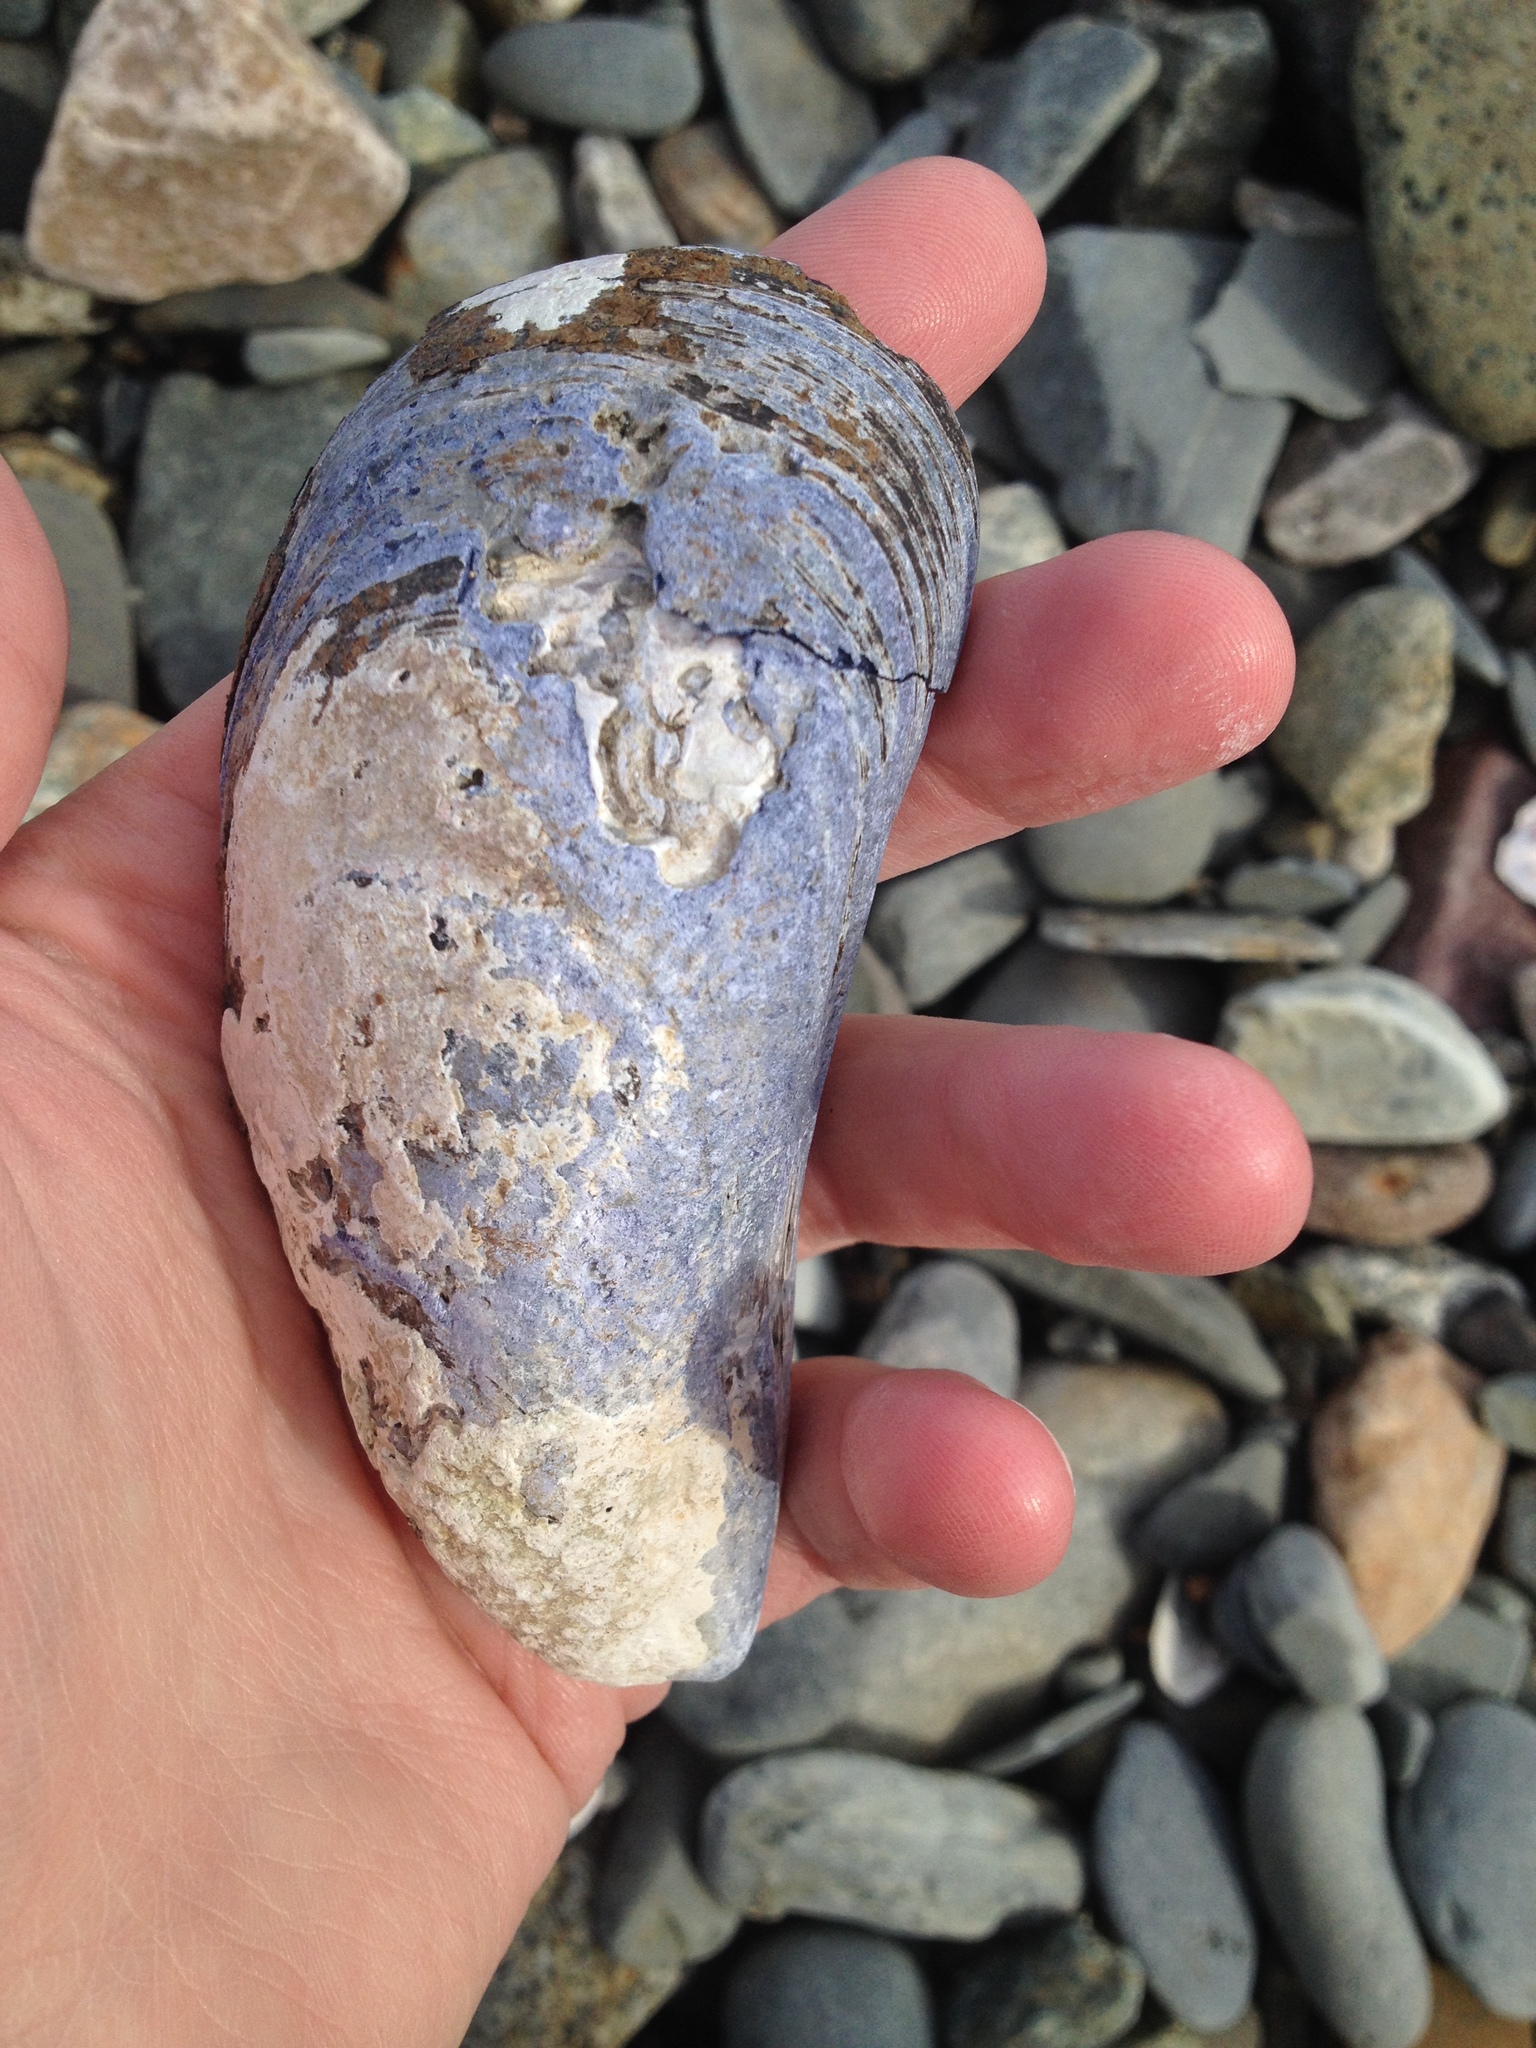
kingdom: Animalia
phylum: Mollusca
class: Bivalvia
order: Mytilida
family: Mytilidae
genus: Mytilus
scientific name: Mytilus edulis
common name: Blue mussel
